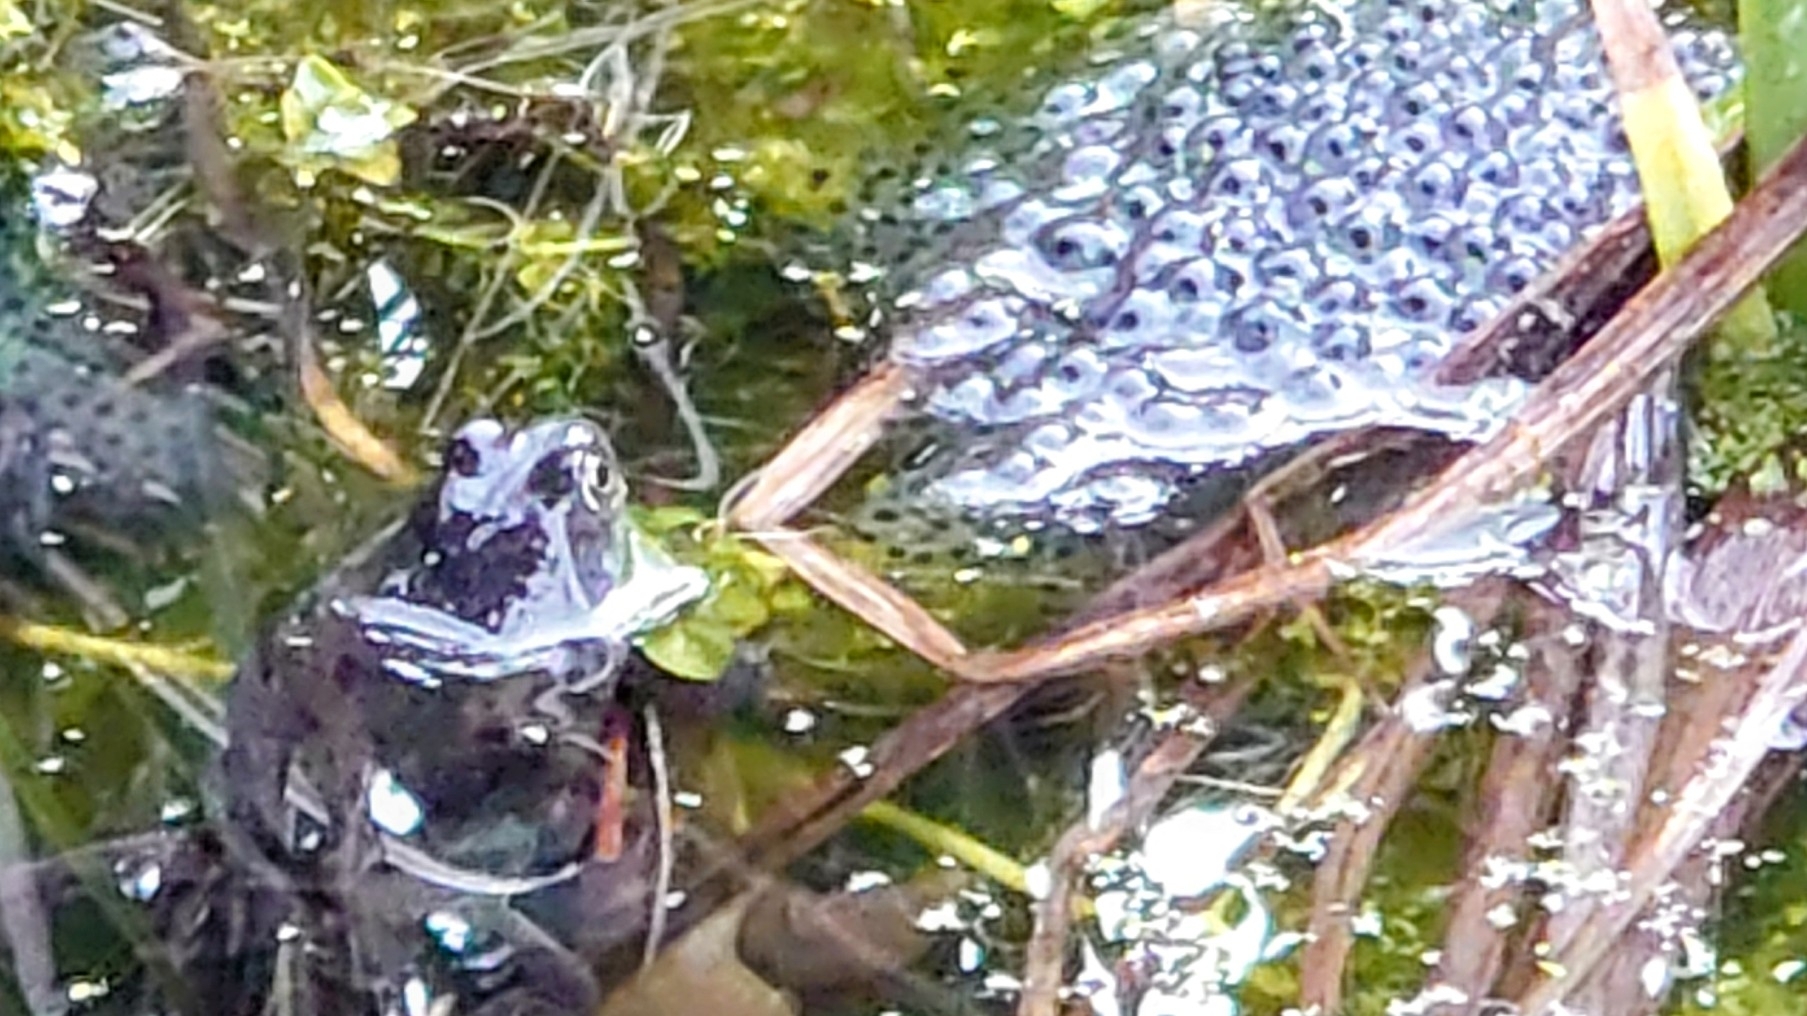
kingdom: Animalia
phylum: Chordata
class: Amphibia
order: Anura
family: Ranidae
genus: Rana
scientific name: Rana temporaria
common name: Common frog
